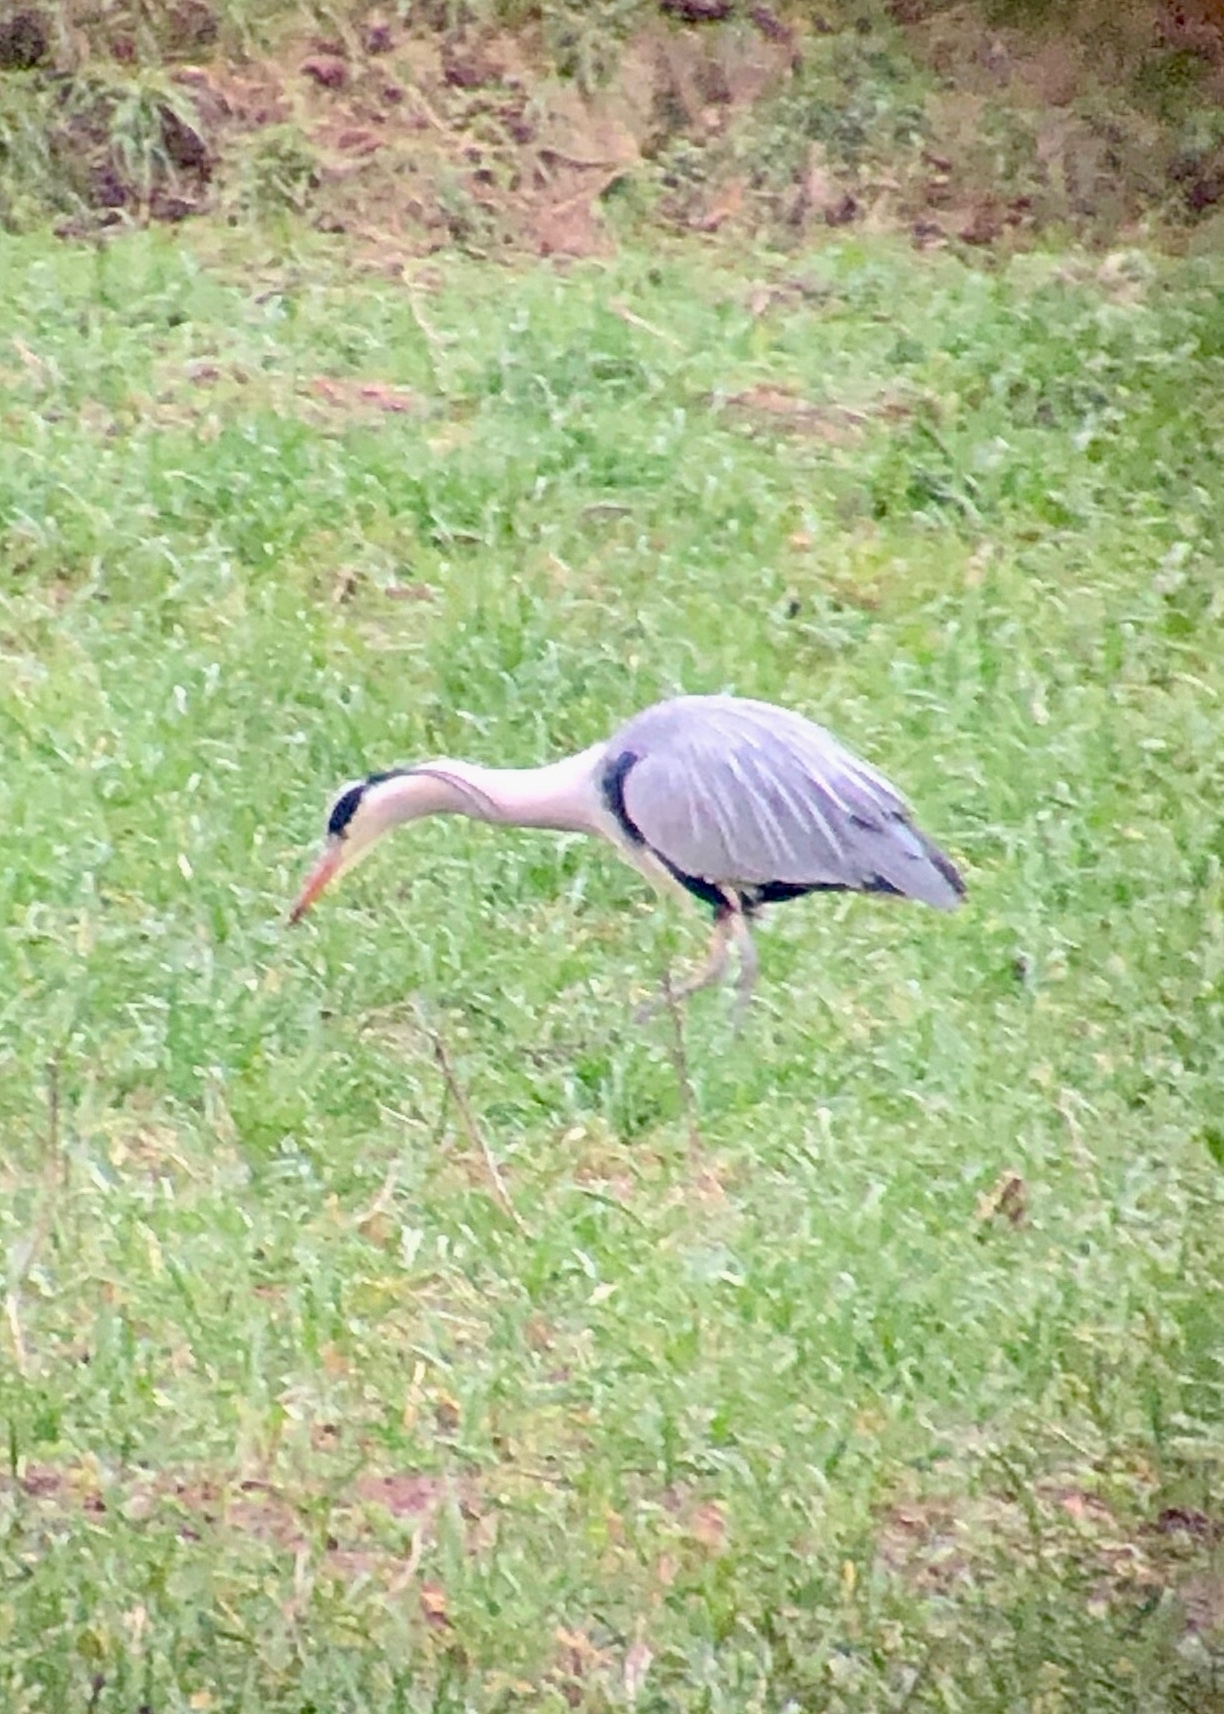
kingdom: Animalia
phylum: Chordata
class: Aves
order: Pelecaniformes
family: Ardeidae
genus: Ardea
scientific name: Ardea cinerea
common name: Grey heron
